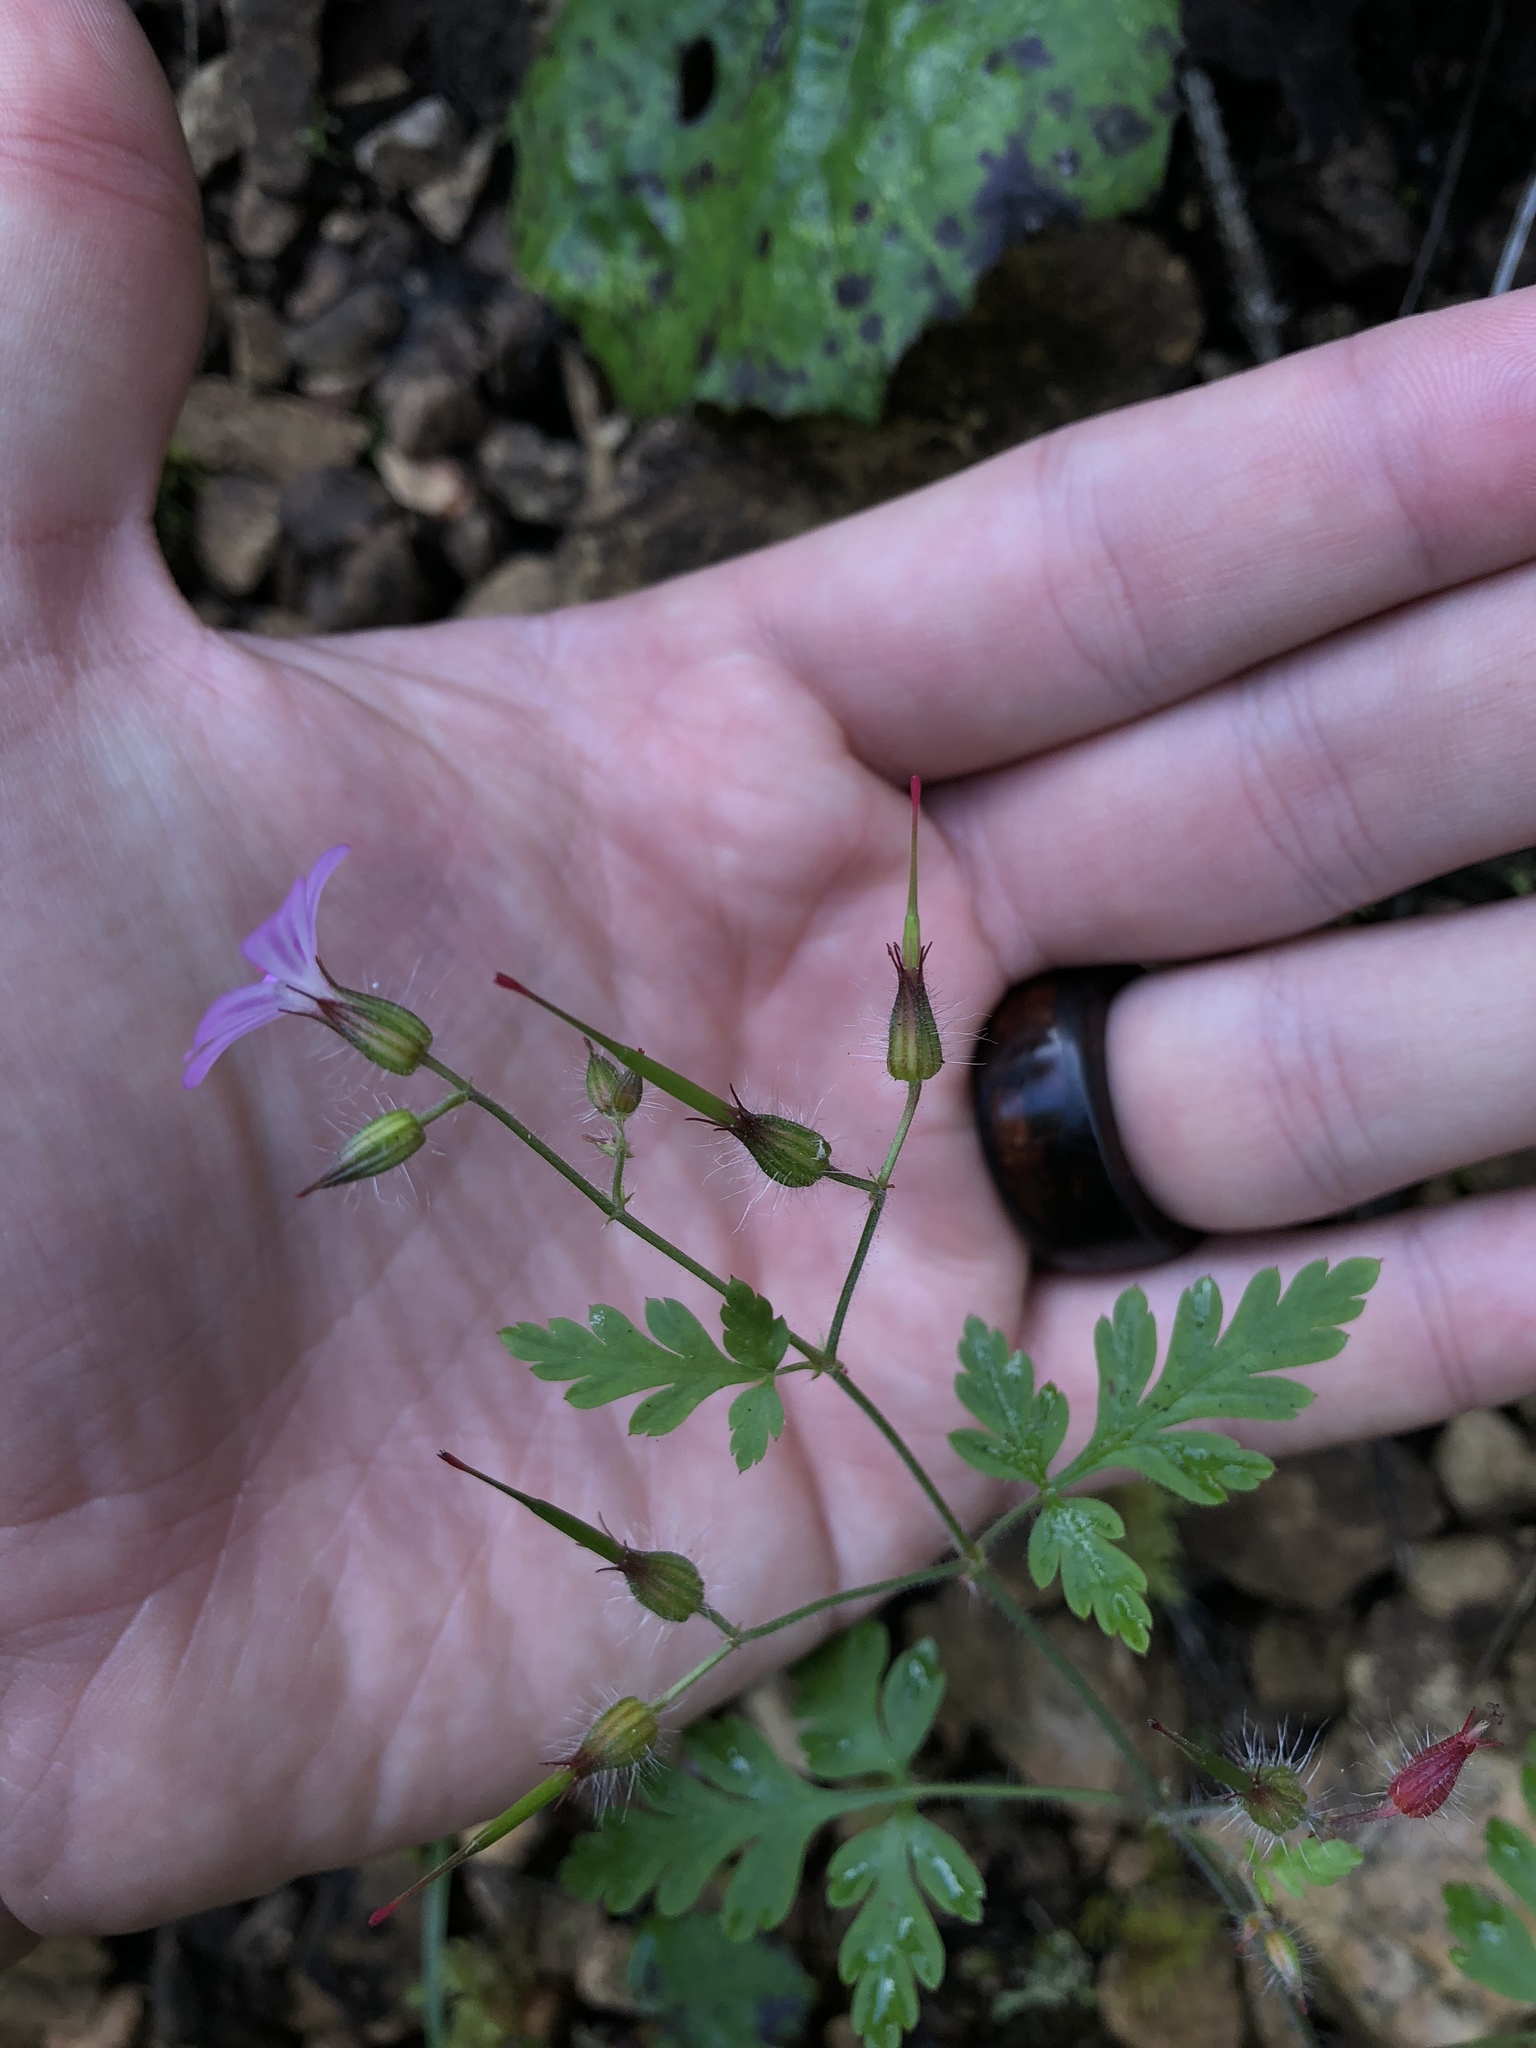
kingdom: Plantae
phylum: Tracheophyta
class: Magnoliopsida
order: Geraniales
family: Geraniaceae
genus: Geranium
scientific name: Geranium robertianum
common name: Herb-robert
